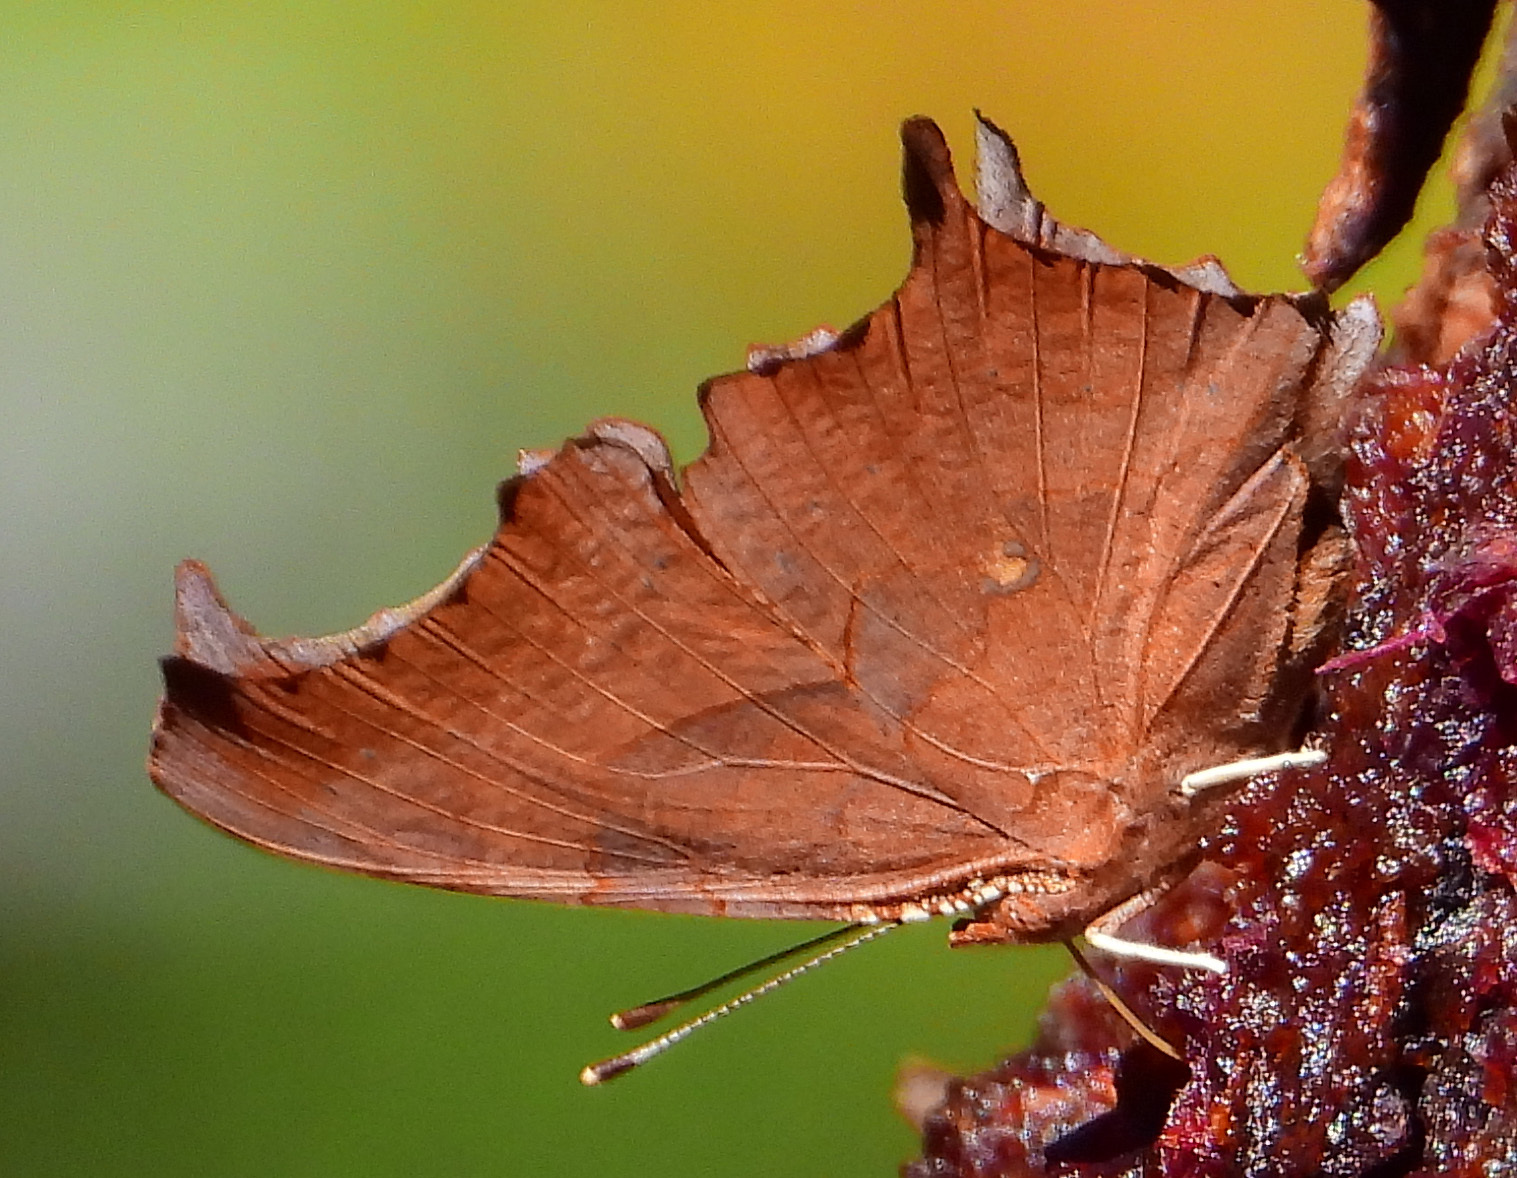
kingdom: Animalia
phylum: Arthropoda
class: Insecta
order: Lepidoptera
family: Nymphalidae
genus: Polygonia
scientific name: Polygonia interrogationis
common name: Question mark
